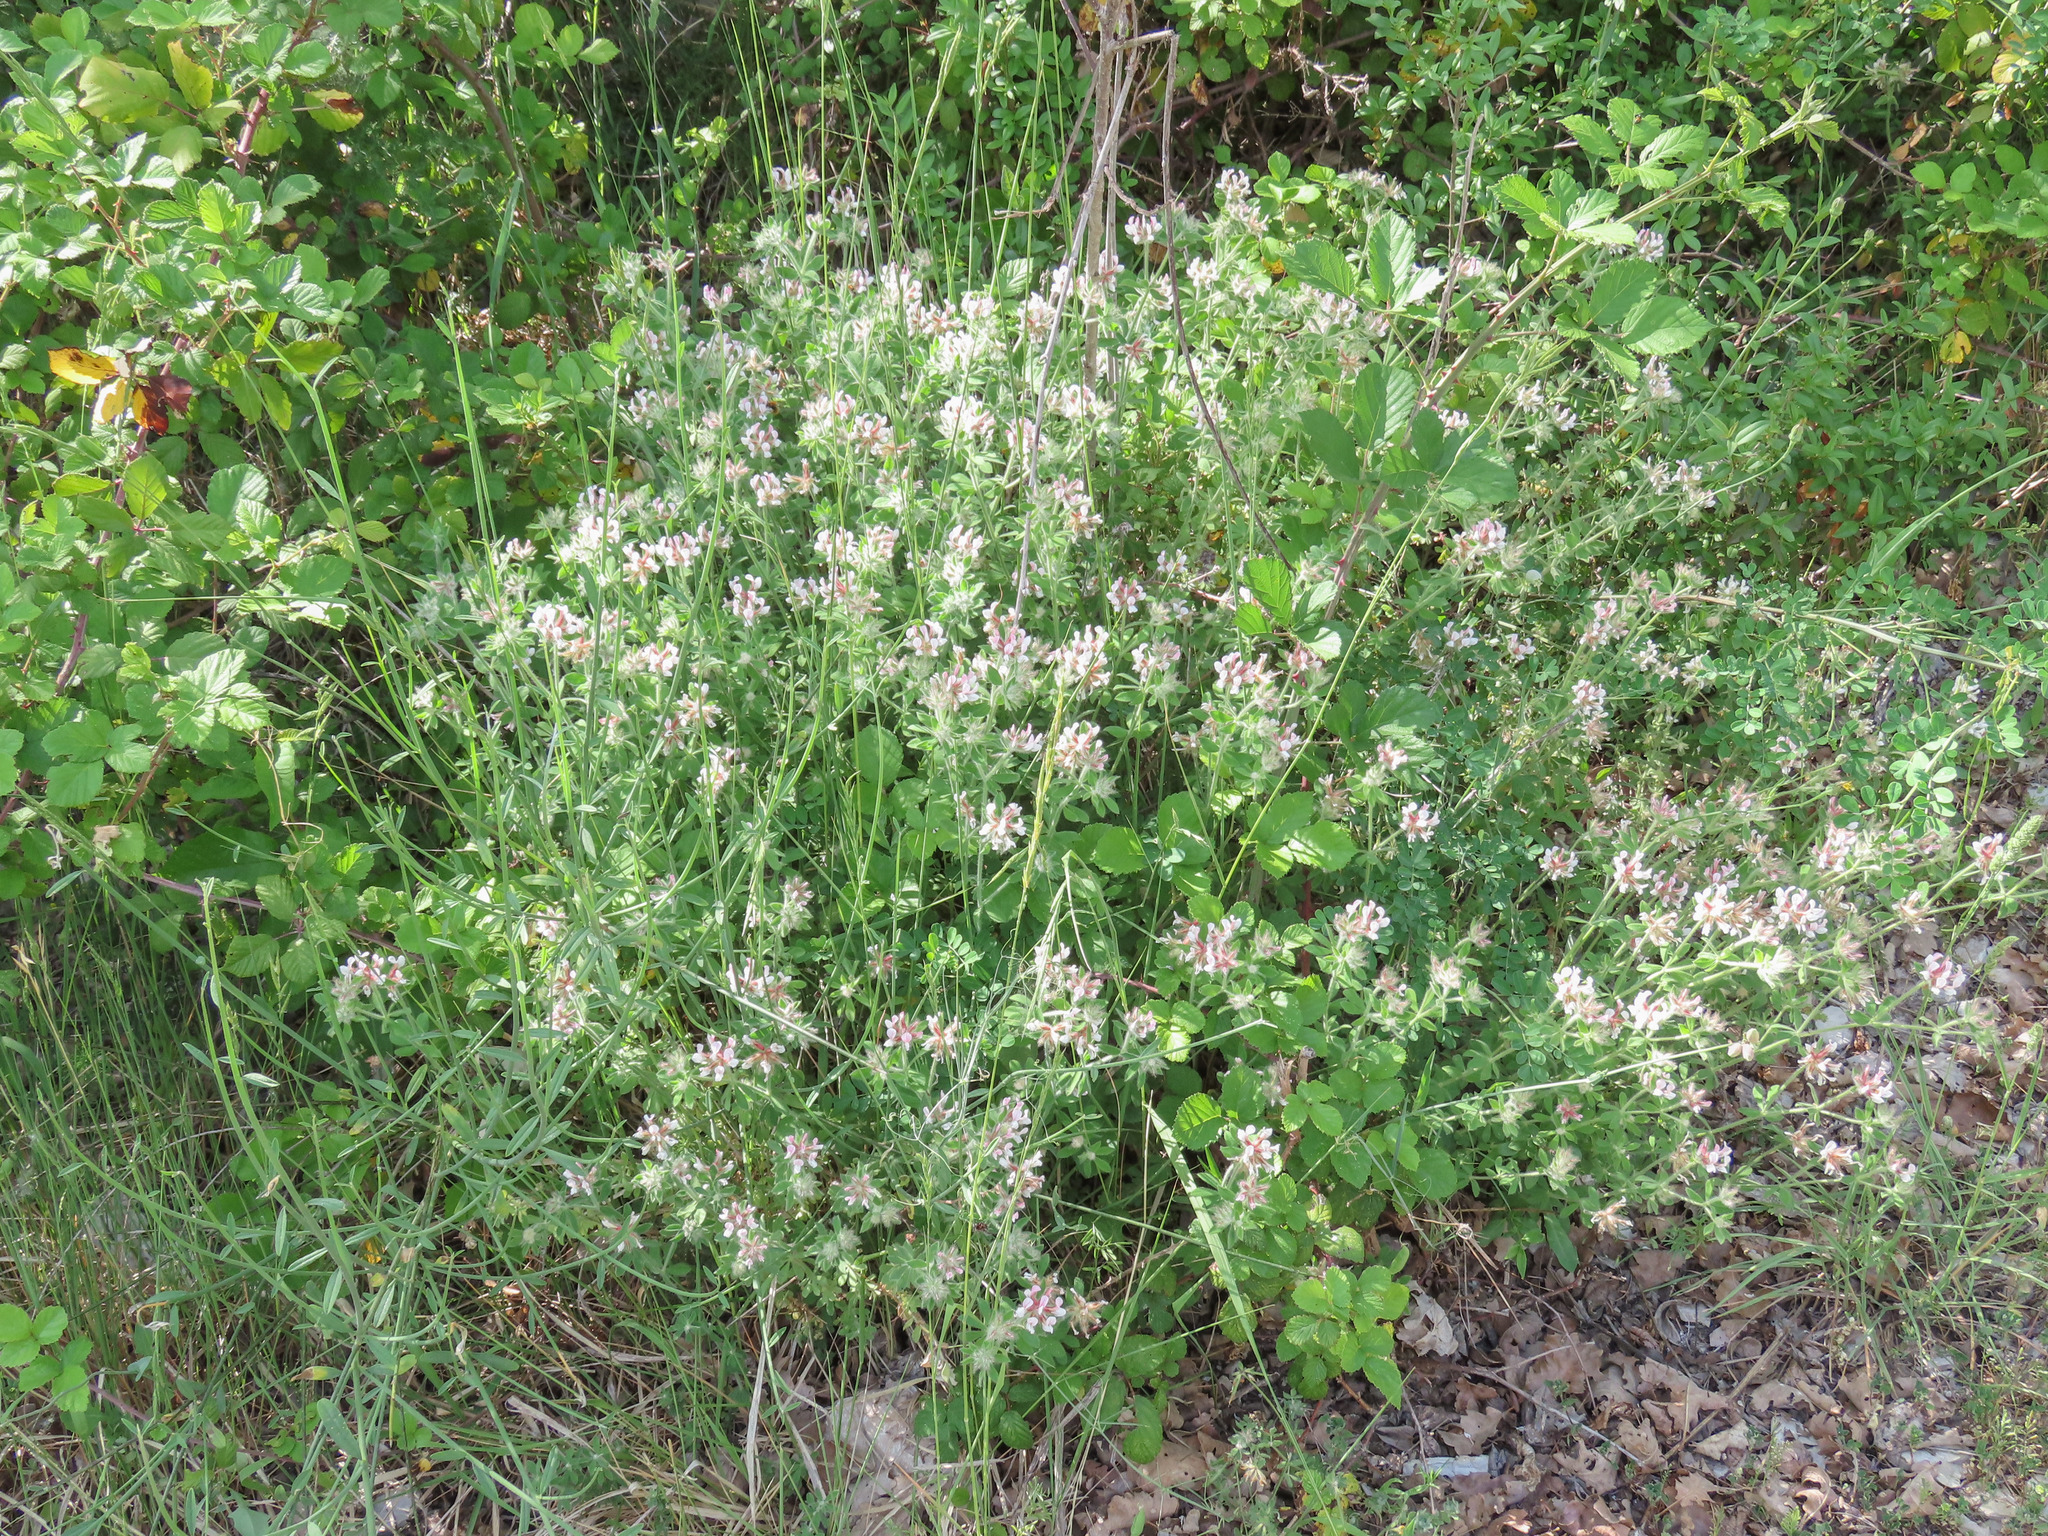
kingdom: Plantae
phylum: Tracheophyta
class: Magnoliopsida
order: Fabales
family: Fabaceae
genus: Lotus
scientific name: Lotus hirsutus
